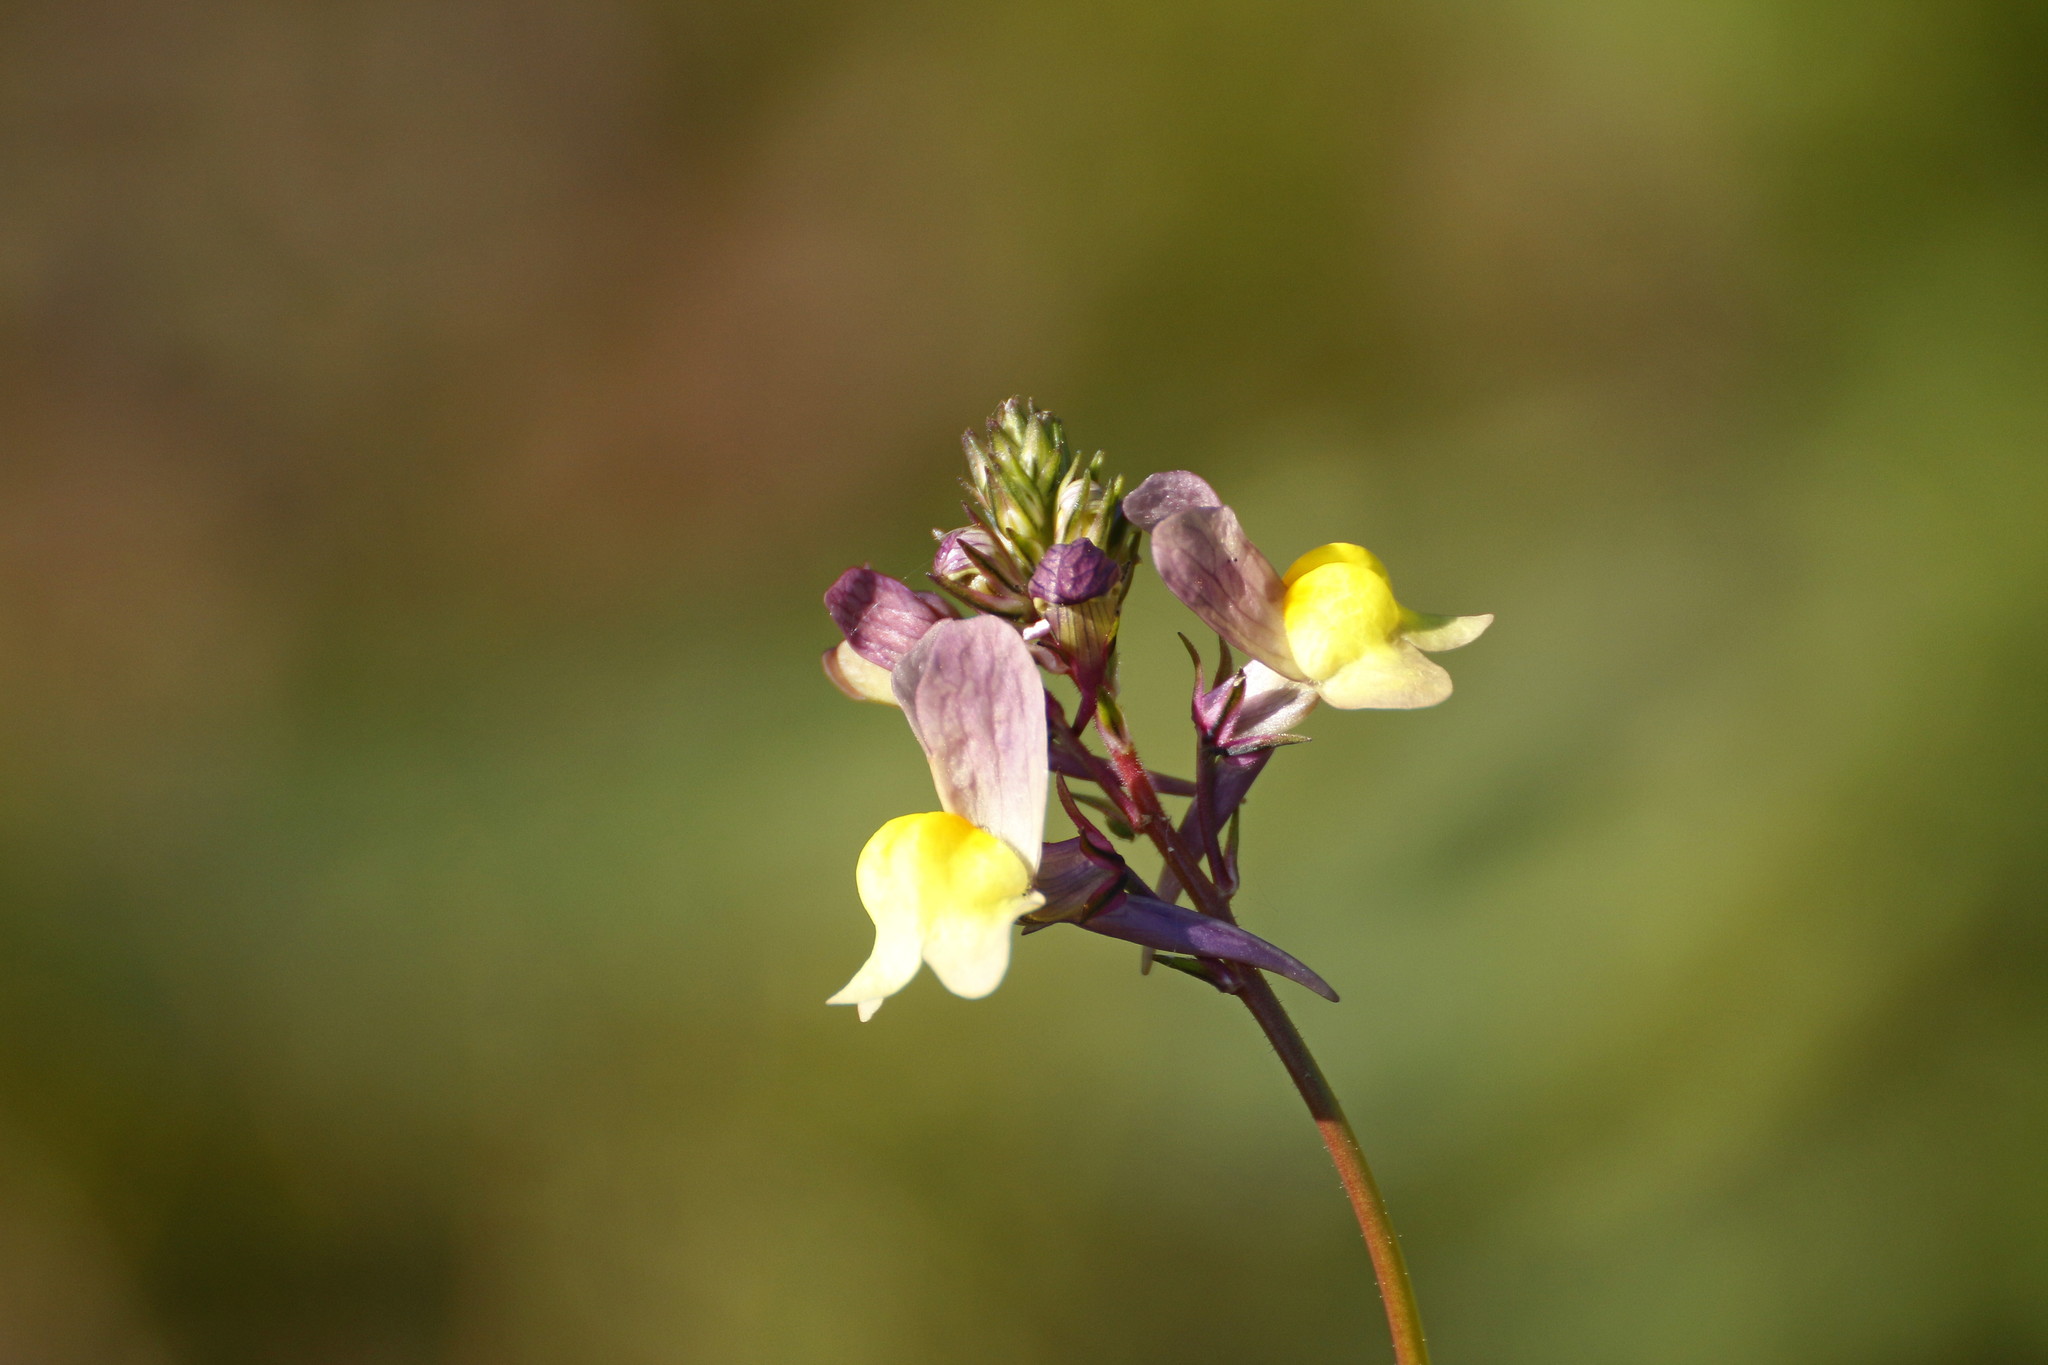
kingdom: Plantae
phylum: Tracheophyta
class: Magnoliopsida
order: Lamiales
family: Plantaginaceae
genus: Linaria
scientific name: Linaria maroccana
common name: Moroccan toadflax
